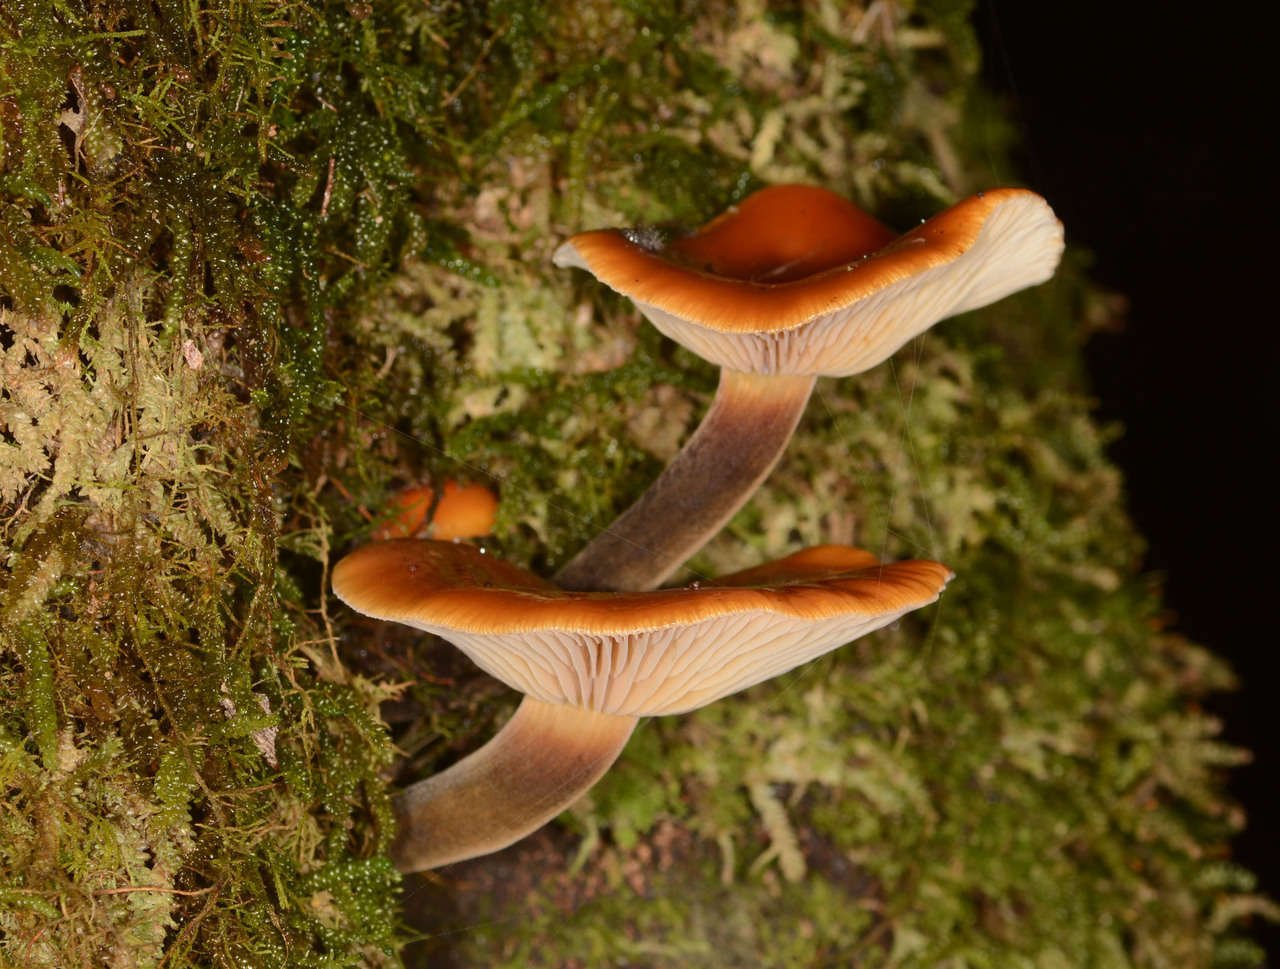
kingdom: Fungi
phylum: Basidiomycota
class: Agaricomycetes
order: Agaricales
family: Physalacriaceae
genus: Flammulina
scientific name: Flammulina velutipes
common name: Velvet shank
